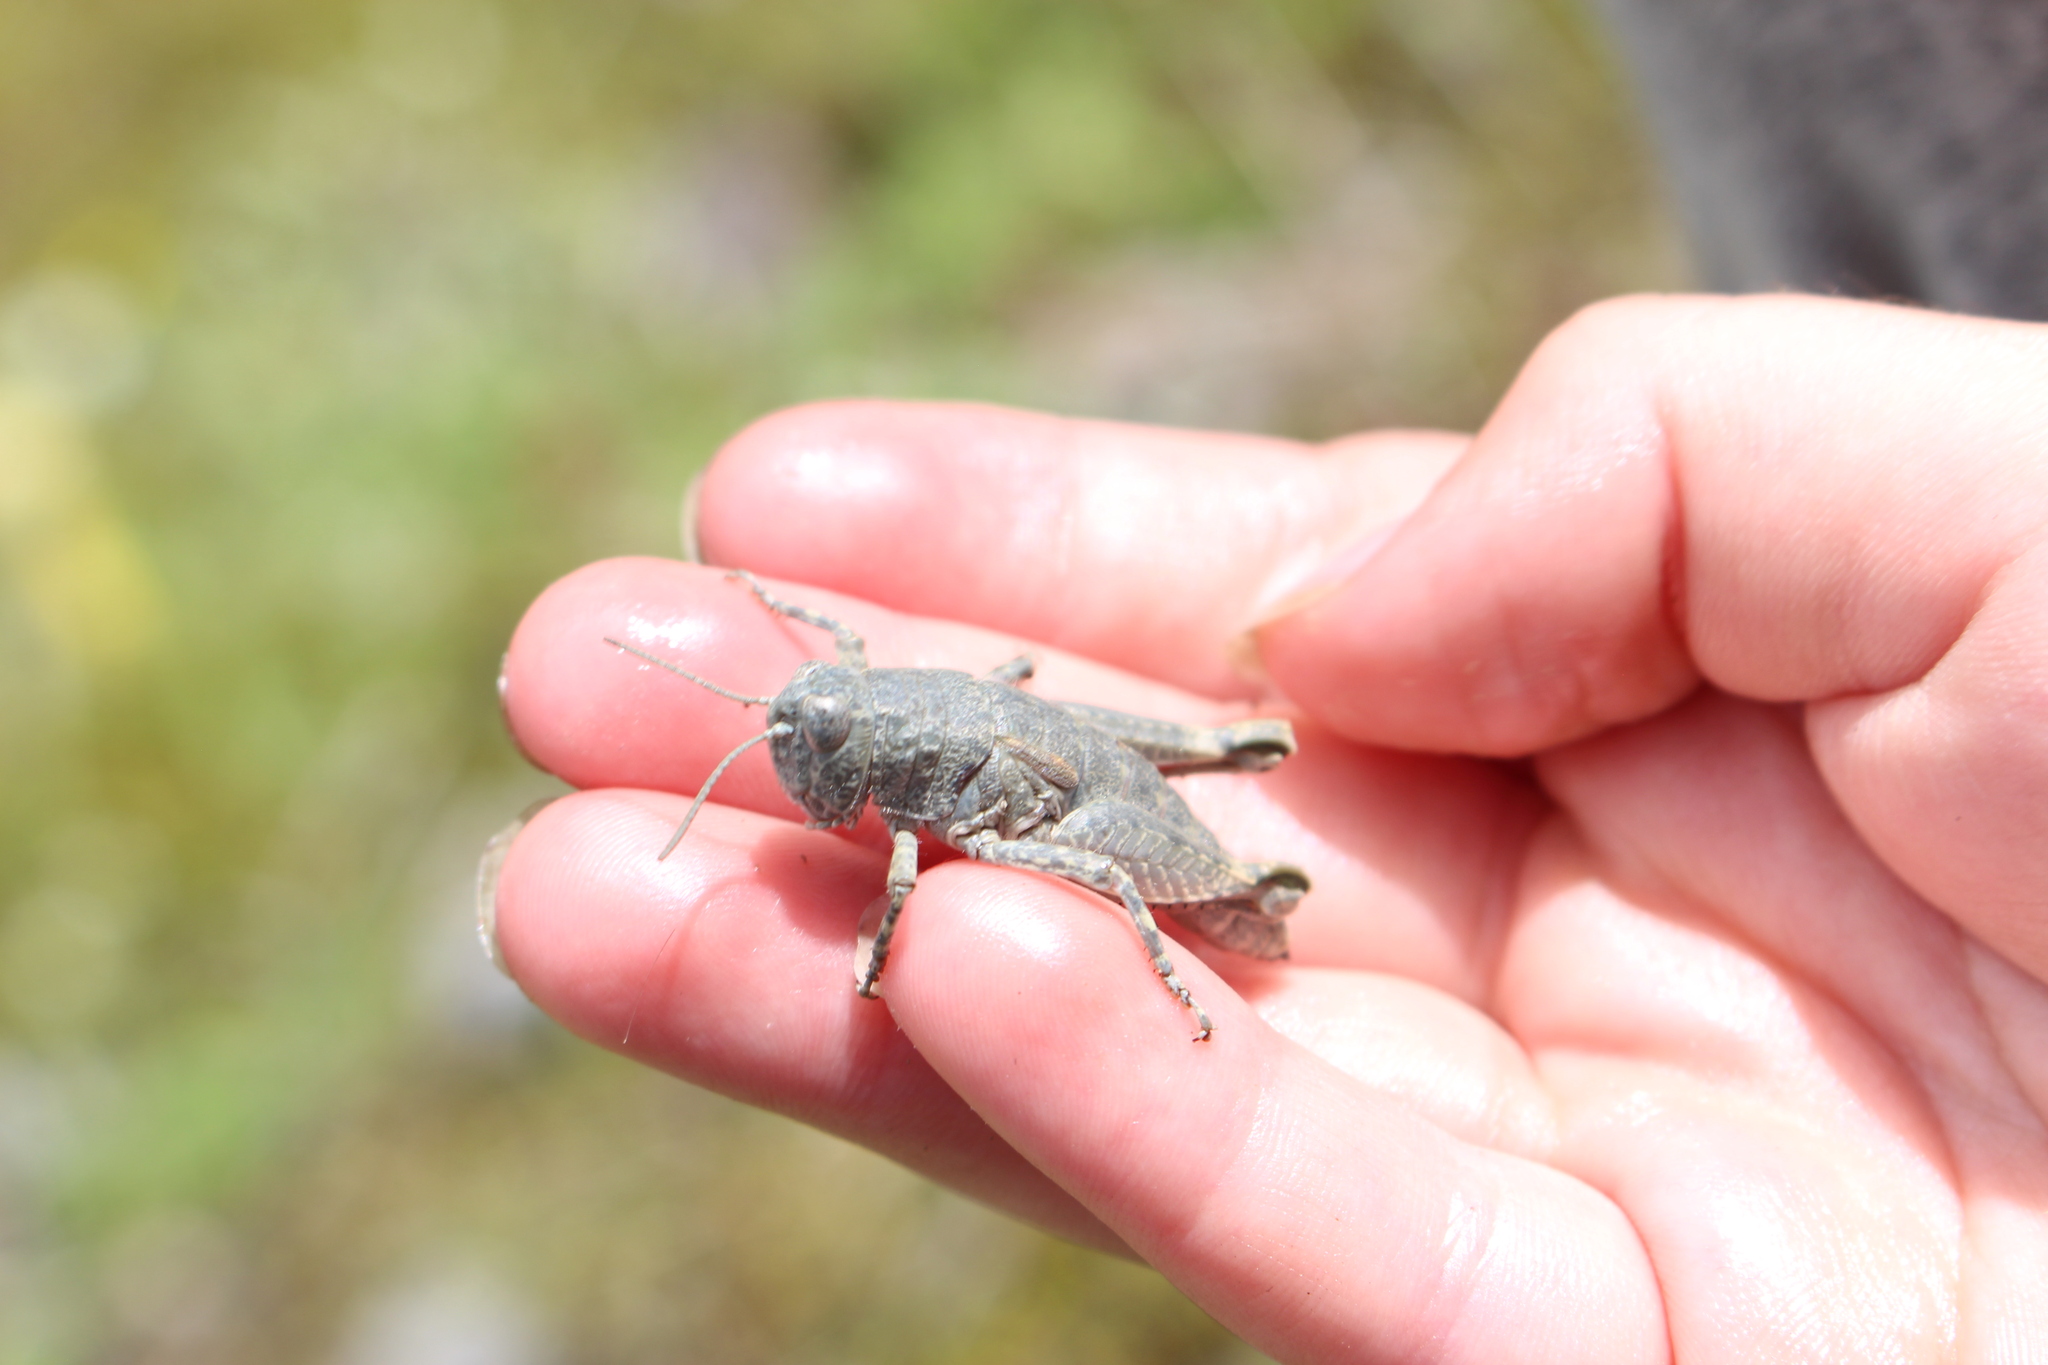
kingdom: Animalia
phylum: Arthropoda
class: Insecta
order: Orthoptera
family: Acrididae
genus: Sigaus
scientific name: Sigaus
